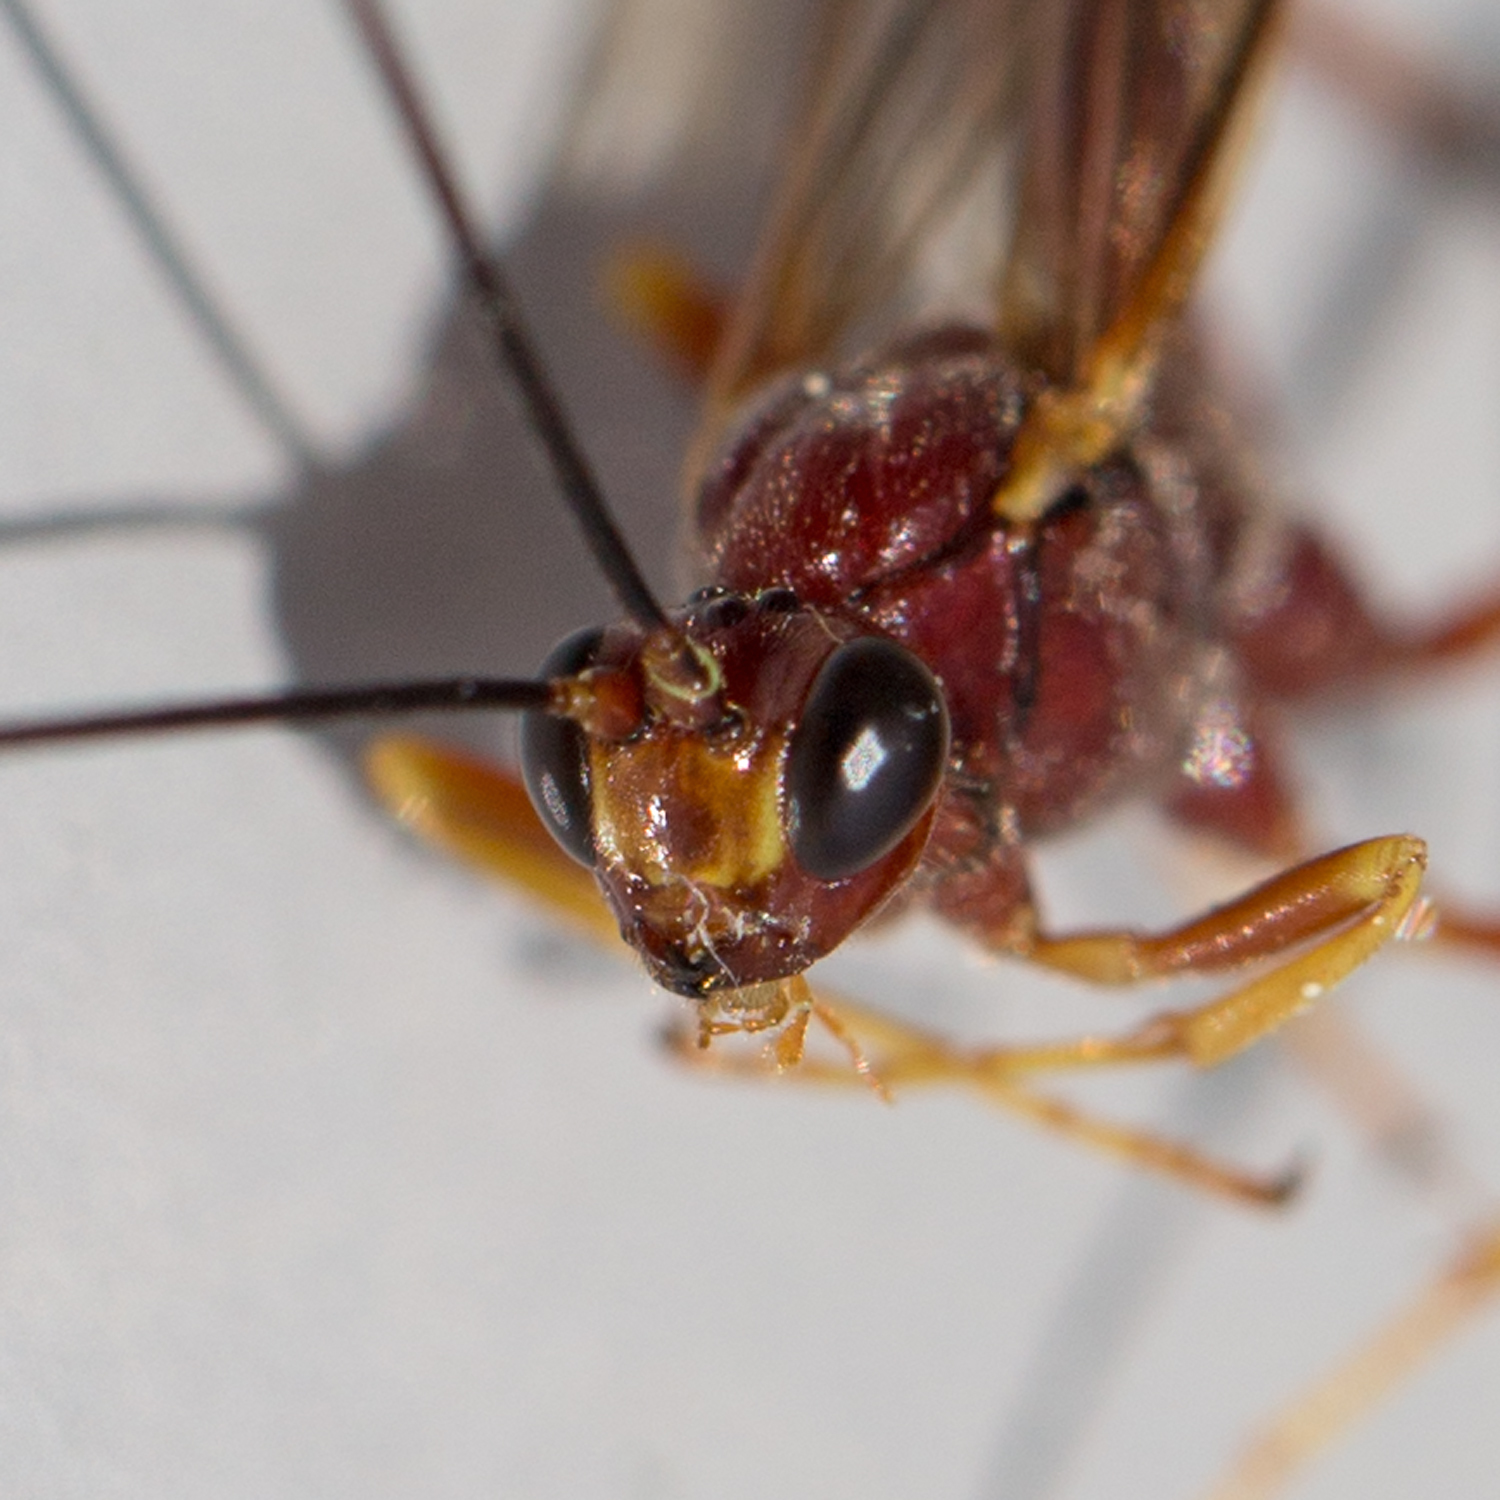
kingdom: Animalia
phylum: Arthropoda
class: Insecta
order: Hymenoptera
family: Ichneumonidae
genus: Coleocentrus
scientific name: Coleocentrus rufus
